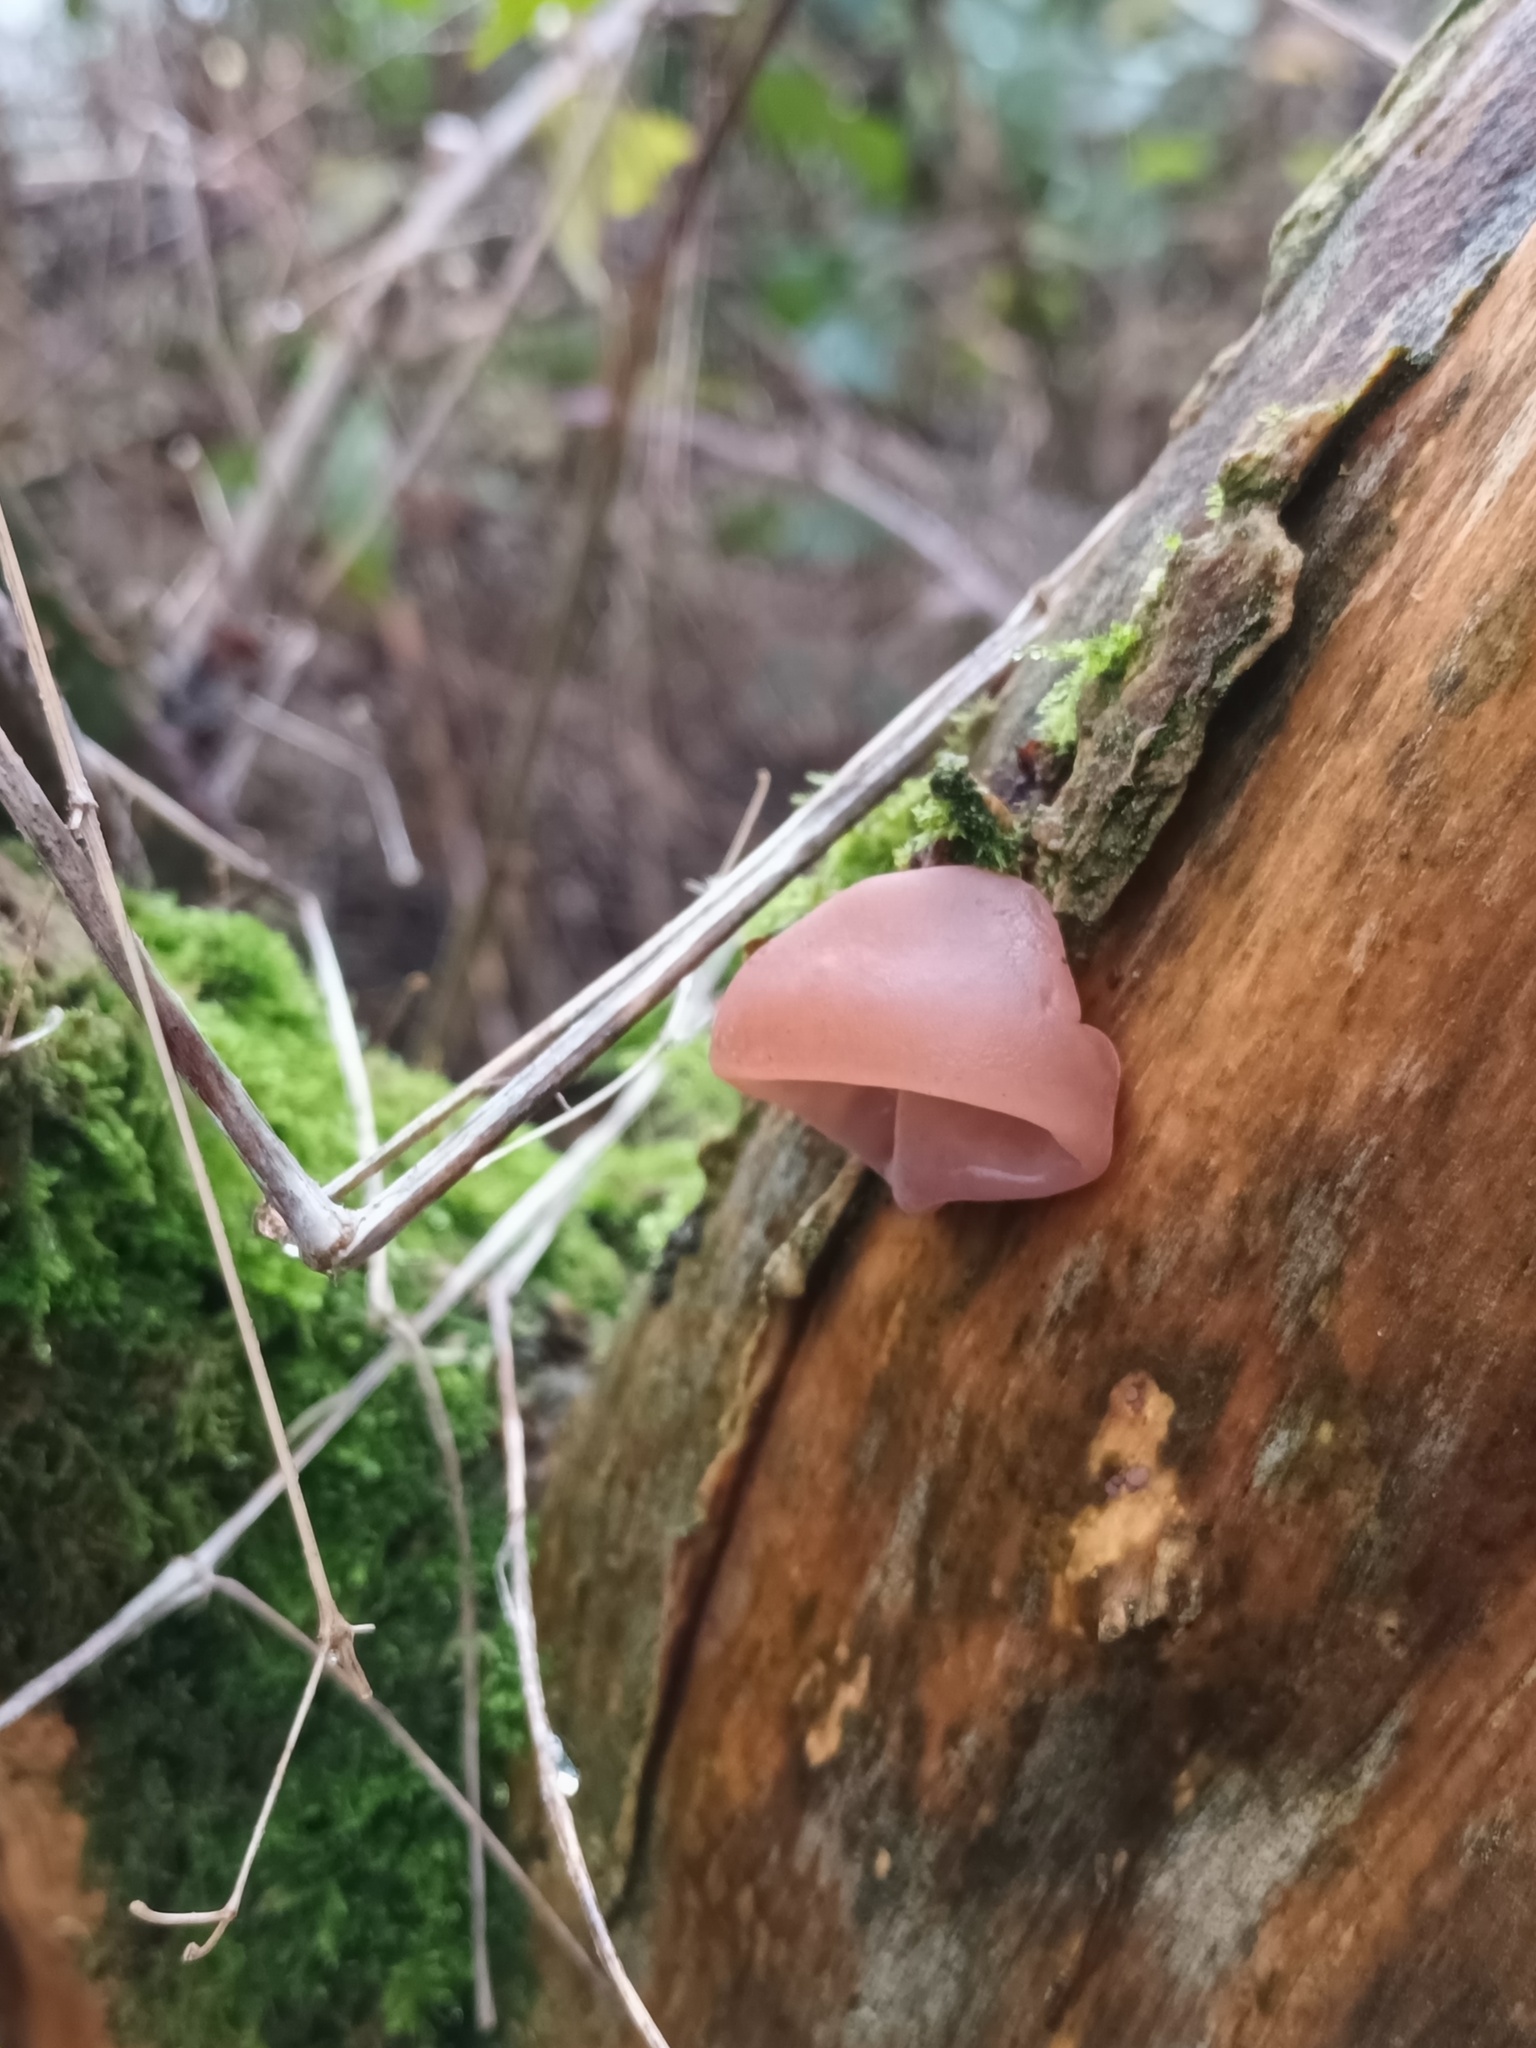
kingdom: Fungi
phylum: Basidiomycota
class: Agaricomycetes
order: Auriculariales
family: Auriculariaceae
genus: Auricularia
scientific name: Auricularia auricula-judae
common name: Jelly ear
